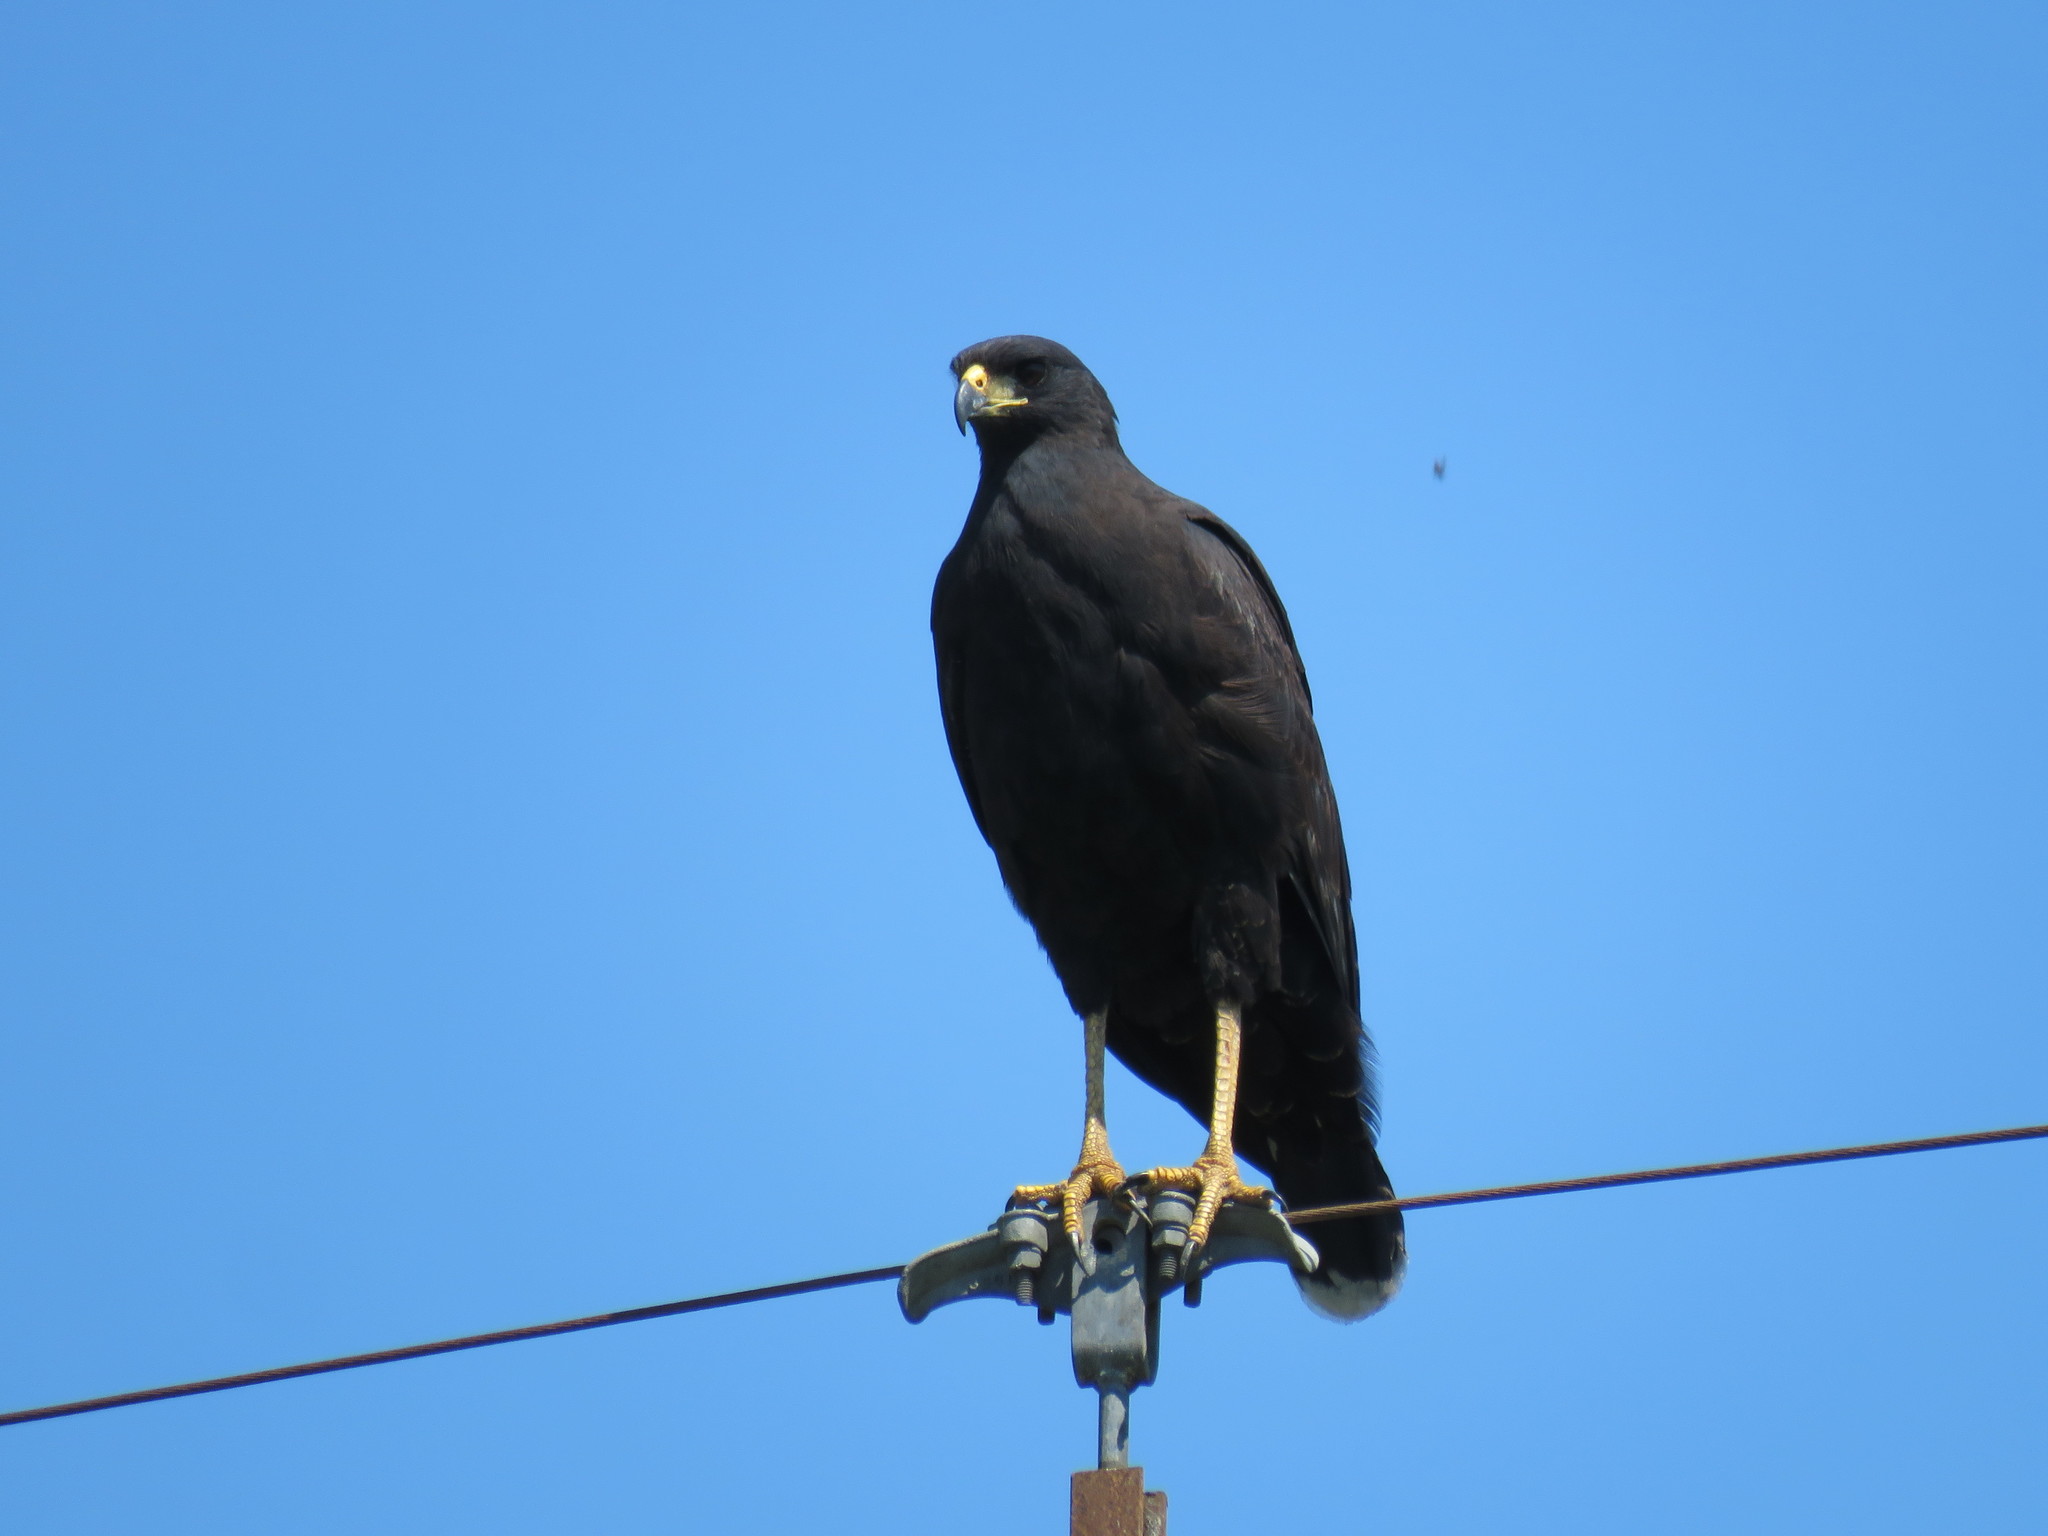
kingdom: Animalia
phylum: Chordata
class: Aves
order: Accipitriformes
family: Accipitridae
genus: Buteogallus
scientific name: Buteogallus urubitinga
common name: Great black hawk
